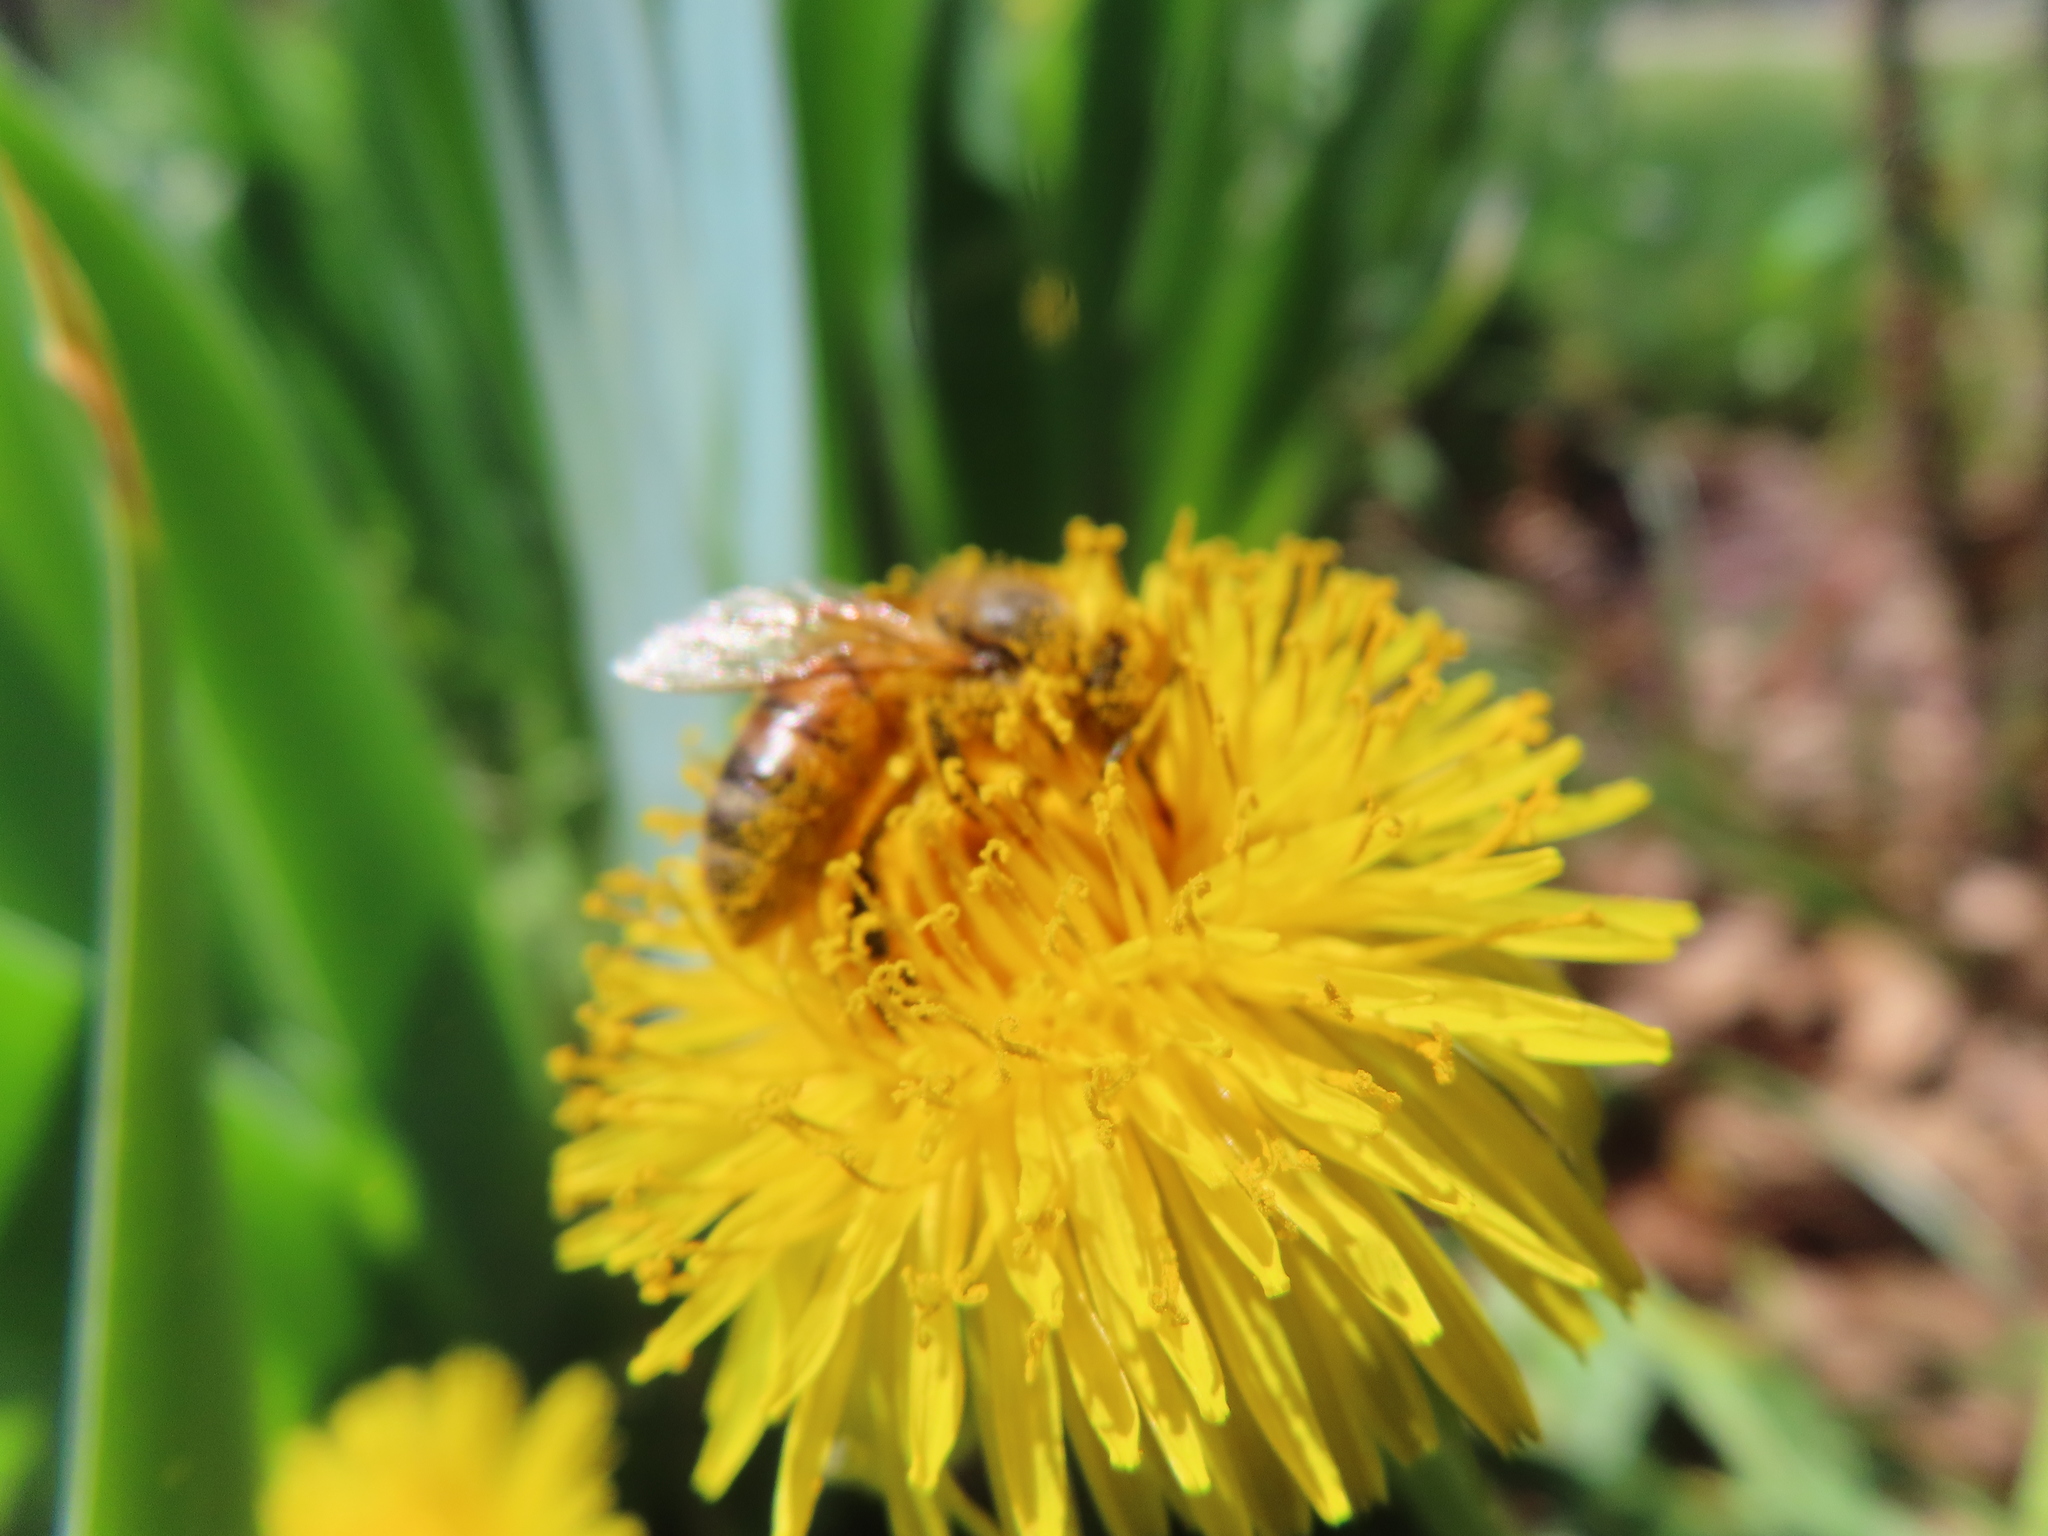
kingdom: Animalia
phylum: Arthropoda
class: Insecta
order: Hymenoptera
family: Apidae
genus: Apis
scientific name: Apis mellifera
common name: Honey bee
